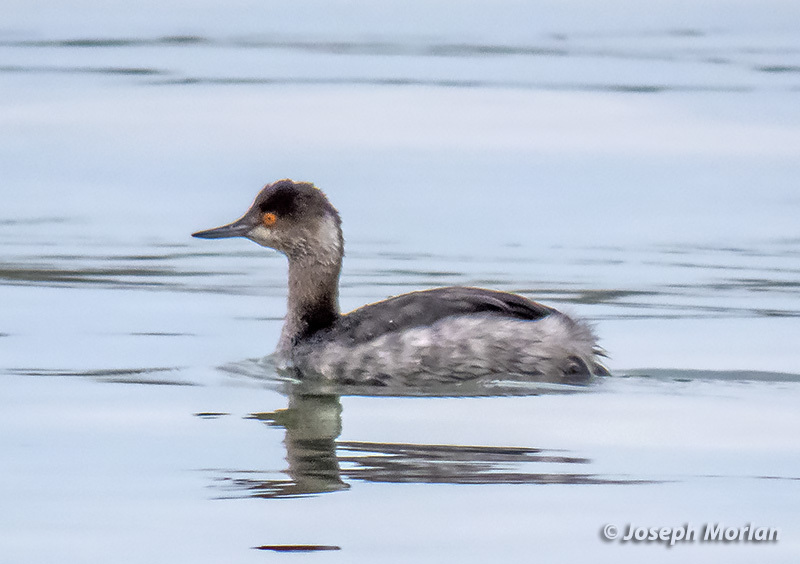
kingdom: Animalia
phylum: Chordata
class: Aves
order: Podicipediformes
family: Podicipedidae
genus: Podiceps
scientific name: Podiceps nigricollis
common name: Black-necked grebe
